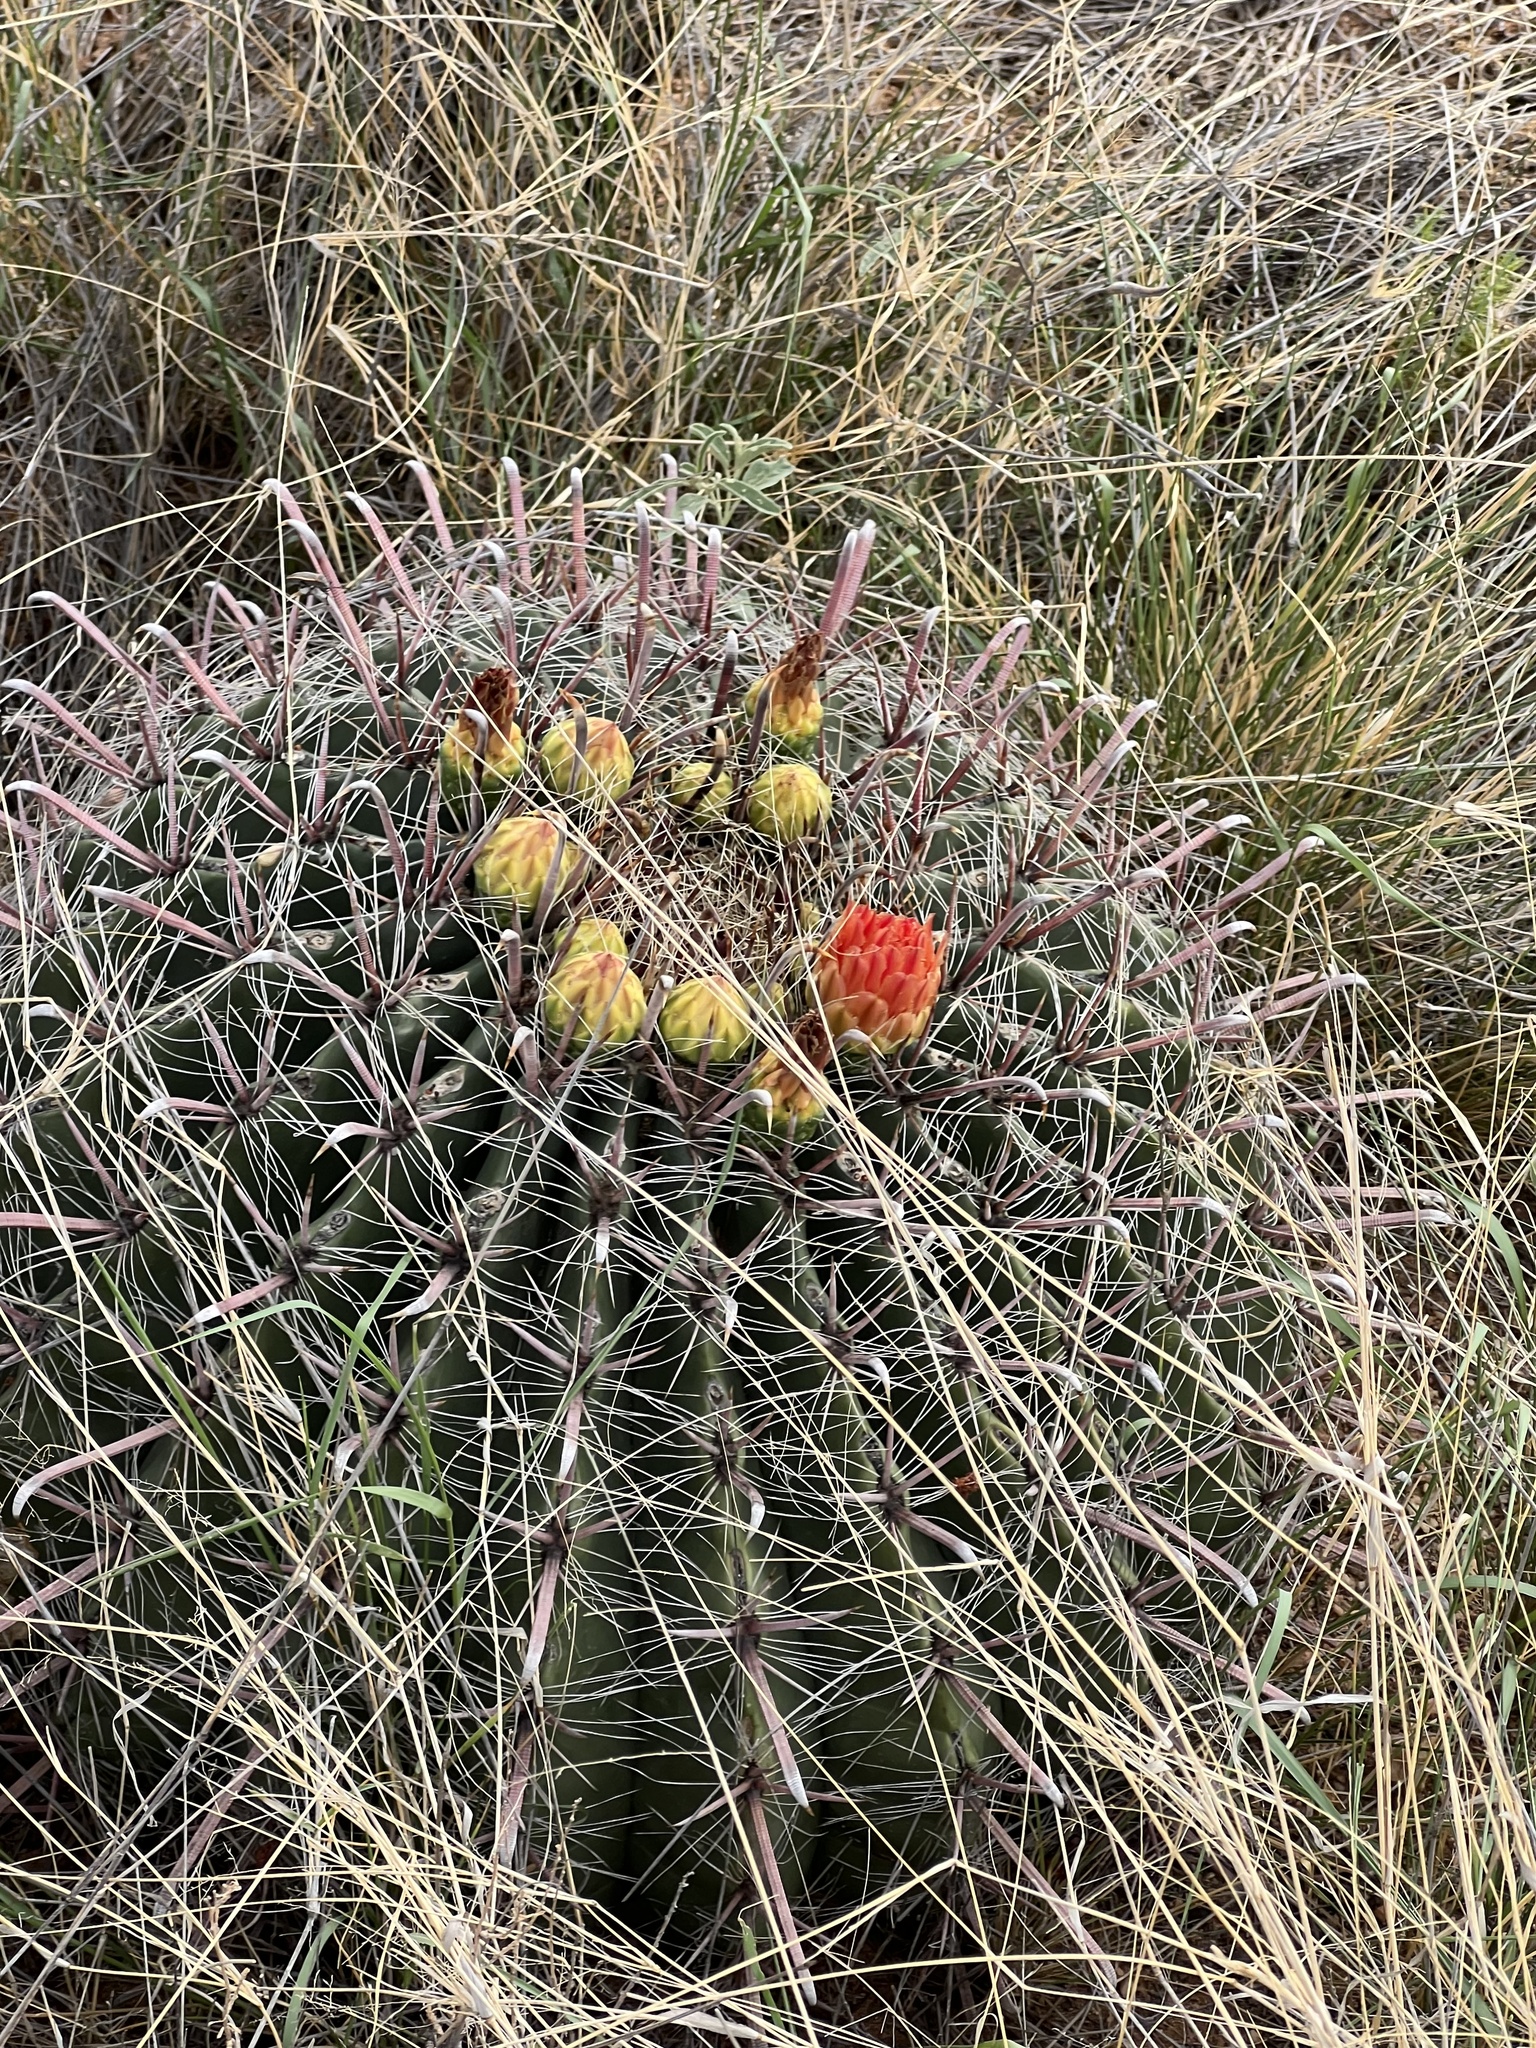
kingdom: Plantae
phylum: Tracheophyta
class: Magnoliopsida
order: Caryophyllales
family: Cactaceae
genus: Ferocactus
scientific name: Ferocactus wislizeni
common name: Candy barrel cactus
